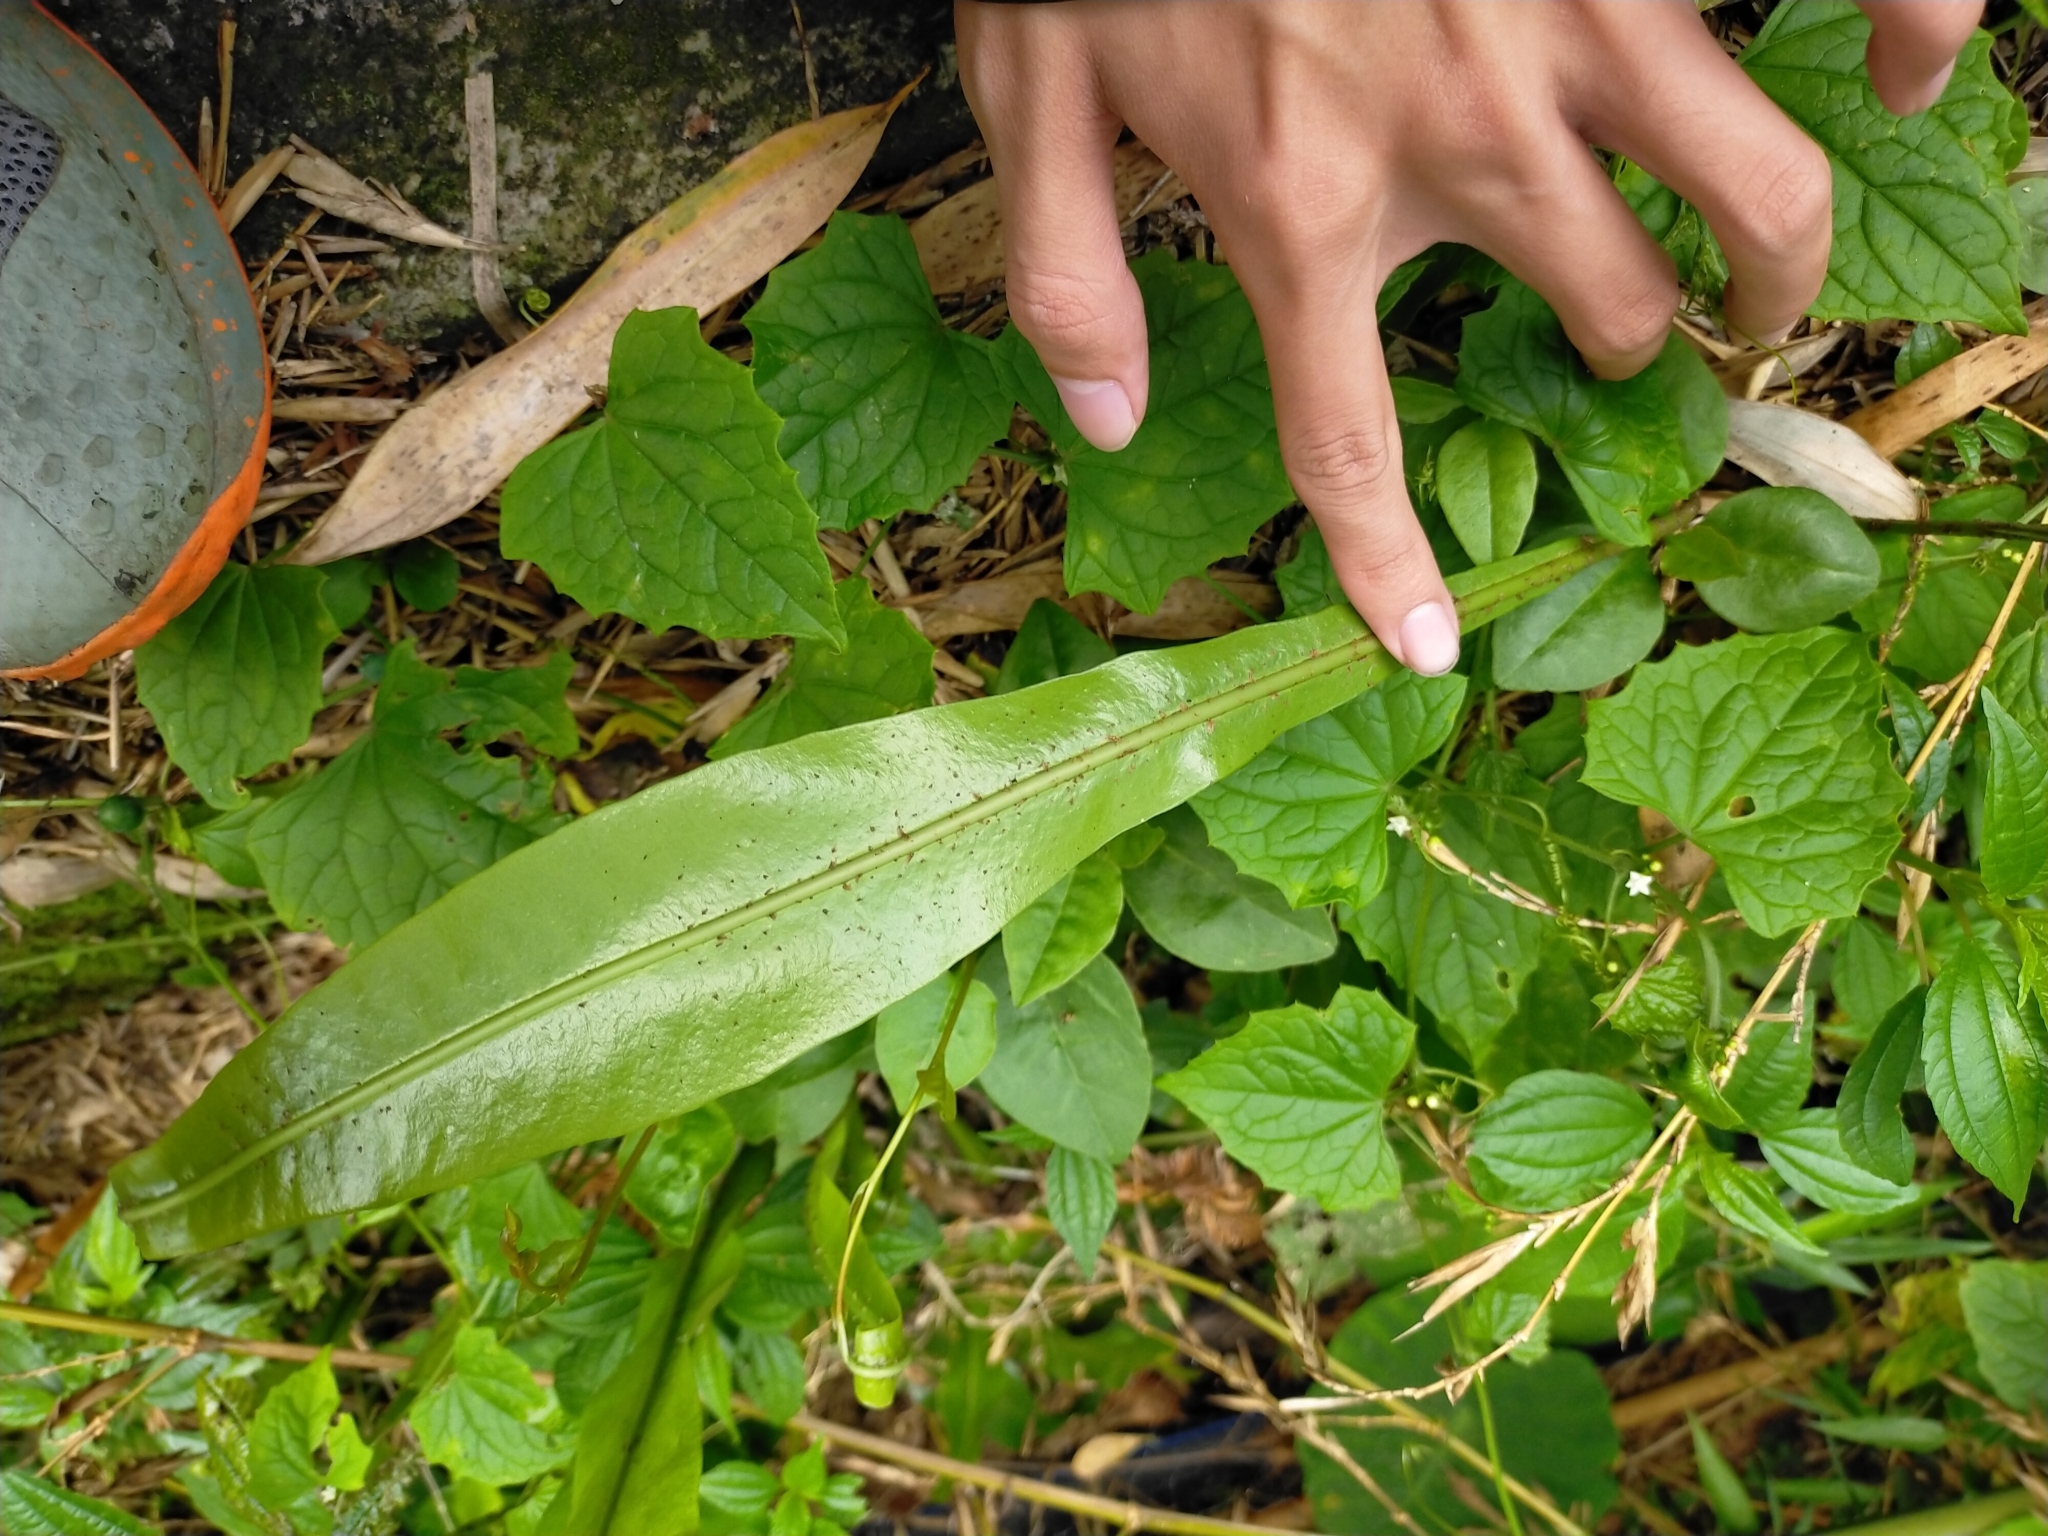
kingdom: Plantae
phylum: Tracheophyta
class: Polypodiopsida
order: Polypodiales
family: Polypodiaceae
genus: Lepisorus
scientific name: Lepisorus fortuni
